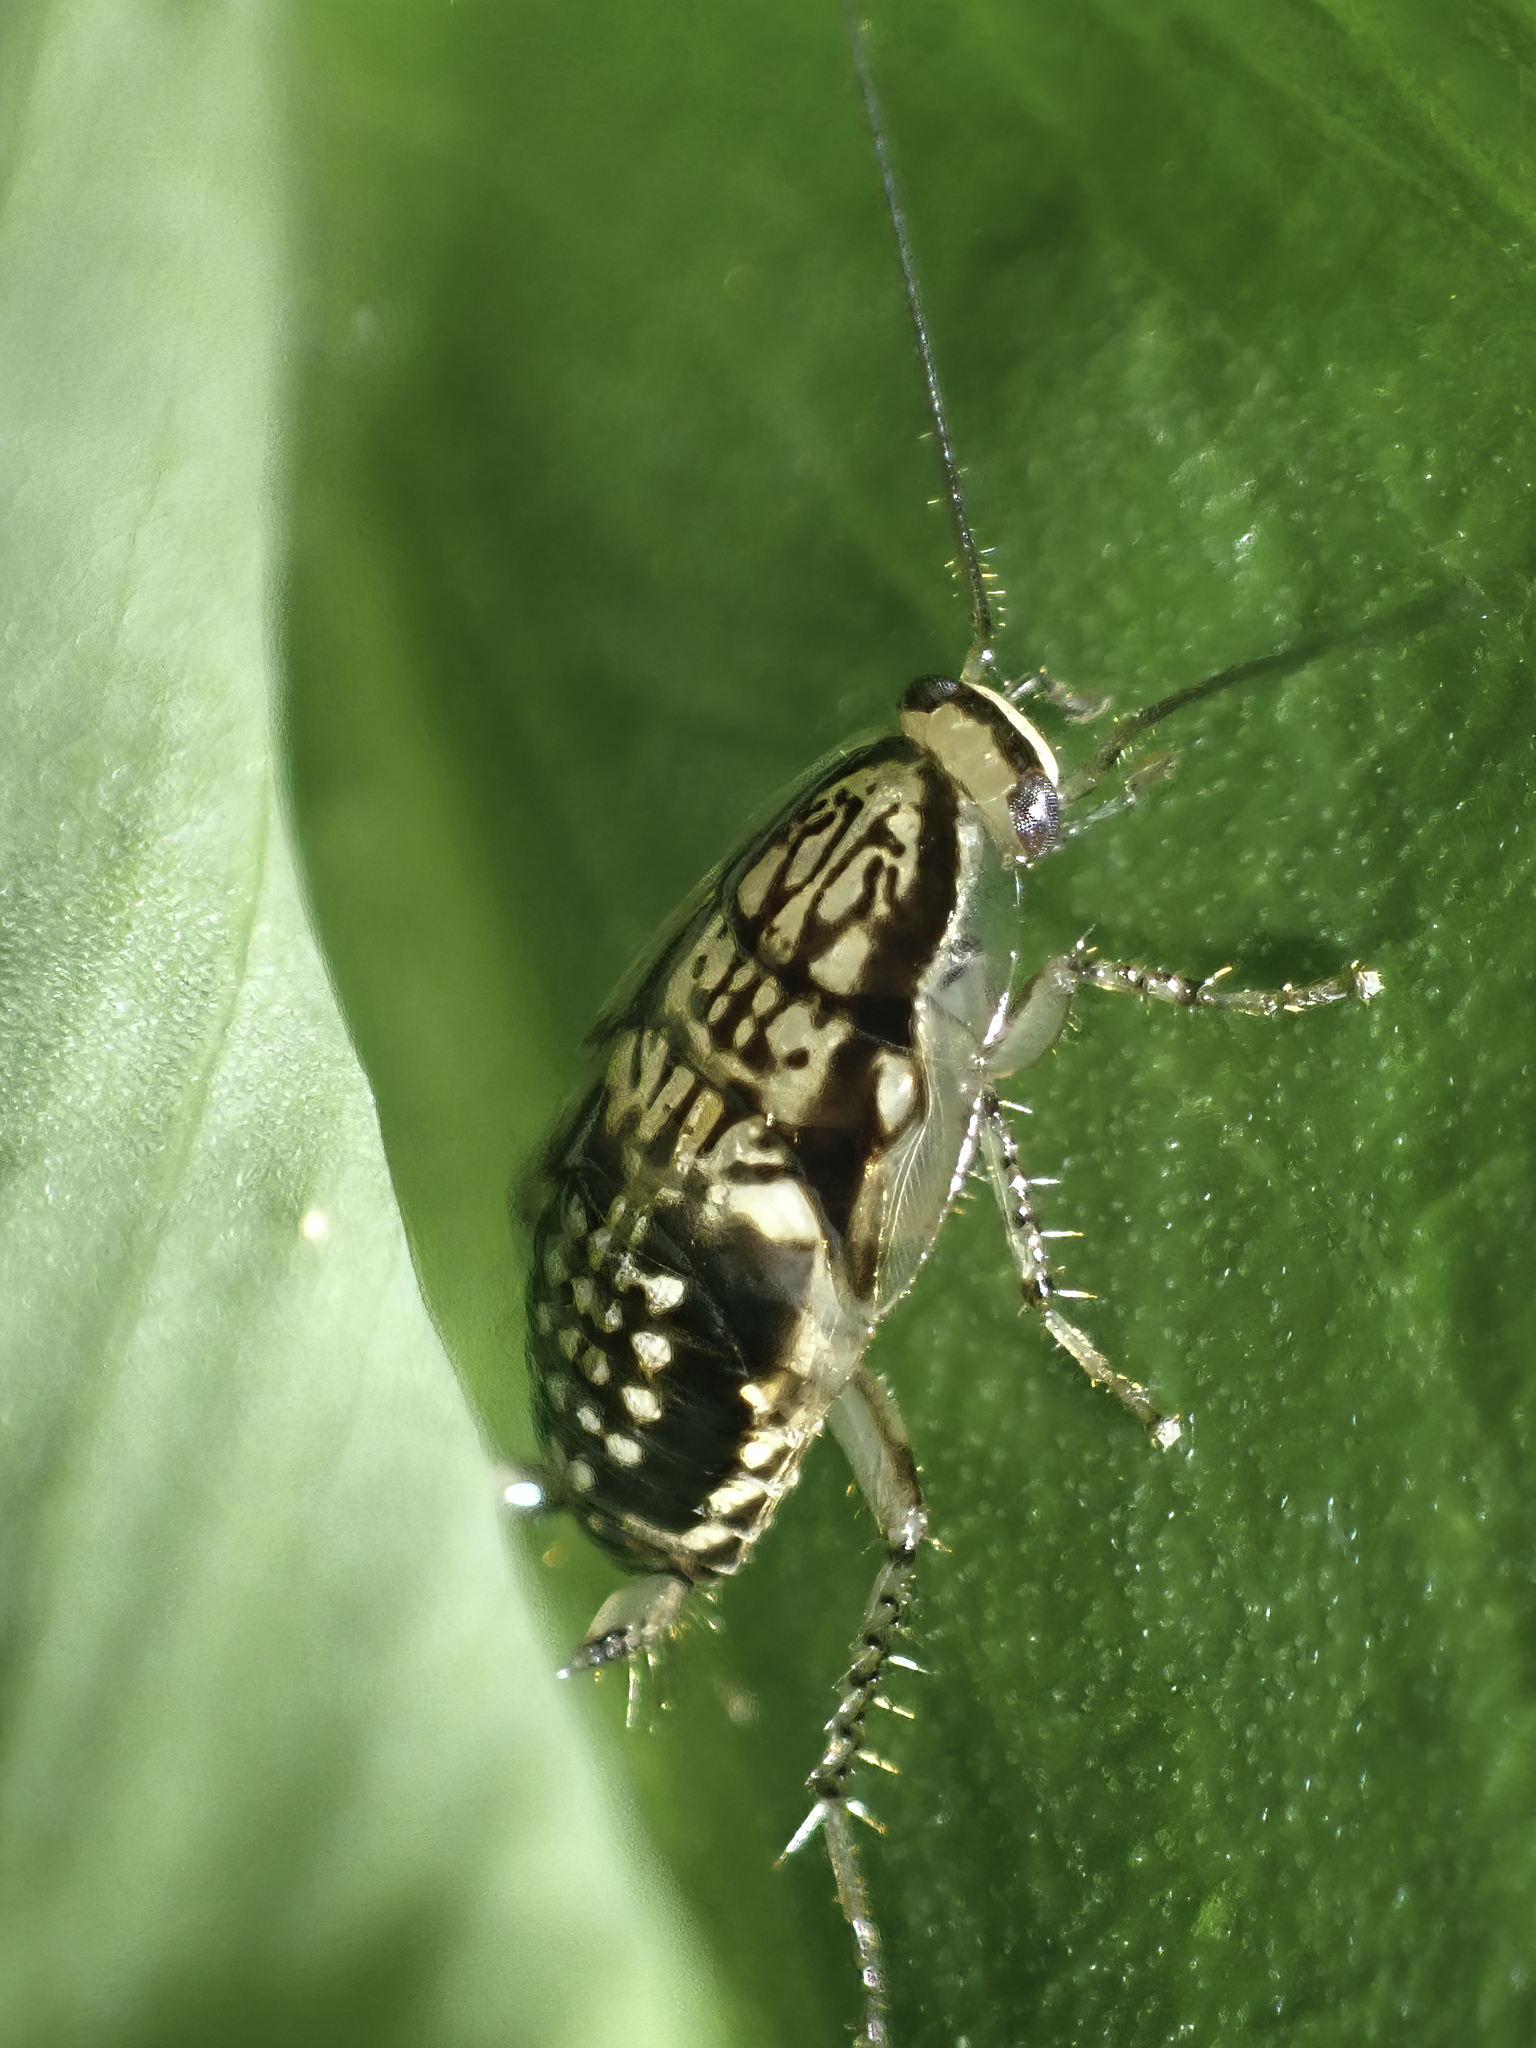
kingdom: Animalia
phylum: Arthropoda
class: Insecta
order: Blattodea
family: Ectobiidae
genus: Neoblattella
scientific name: Neoblattella detersa
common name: Wood cockroach
